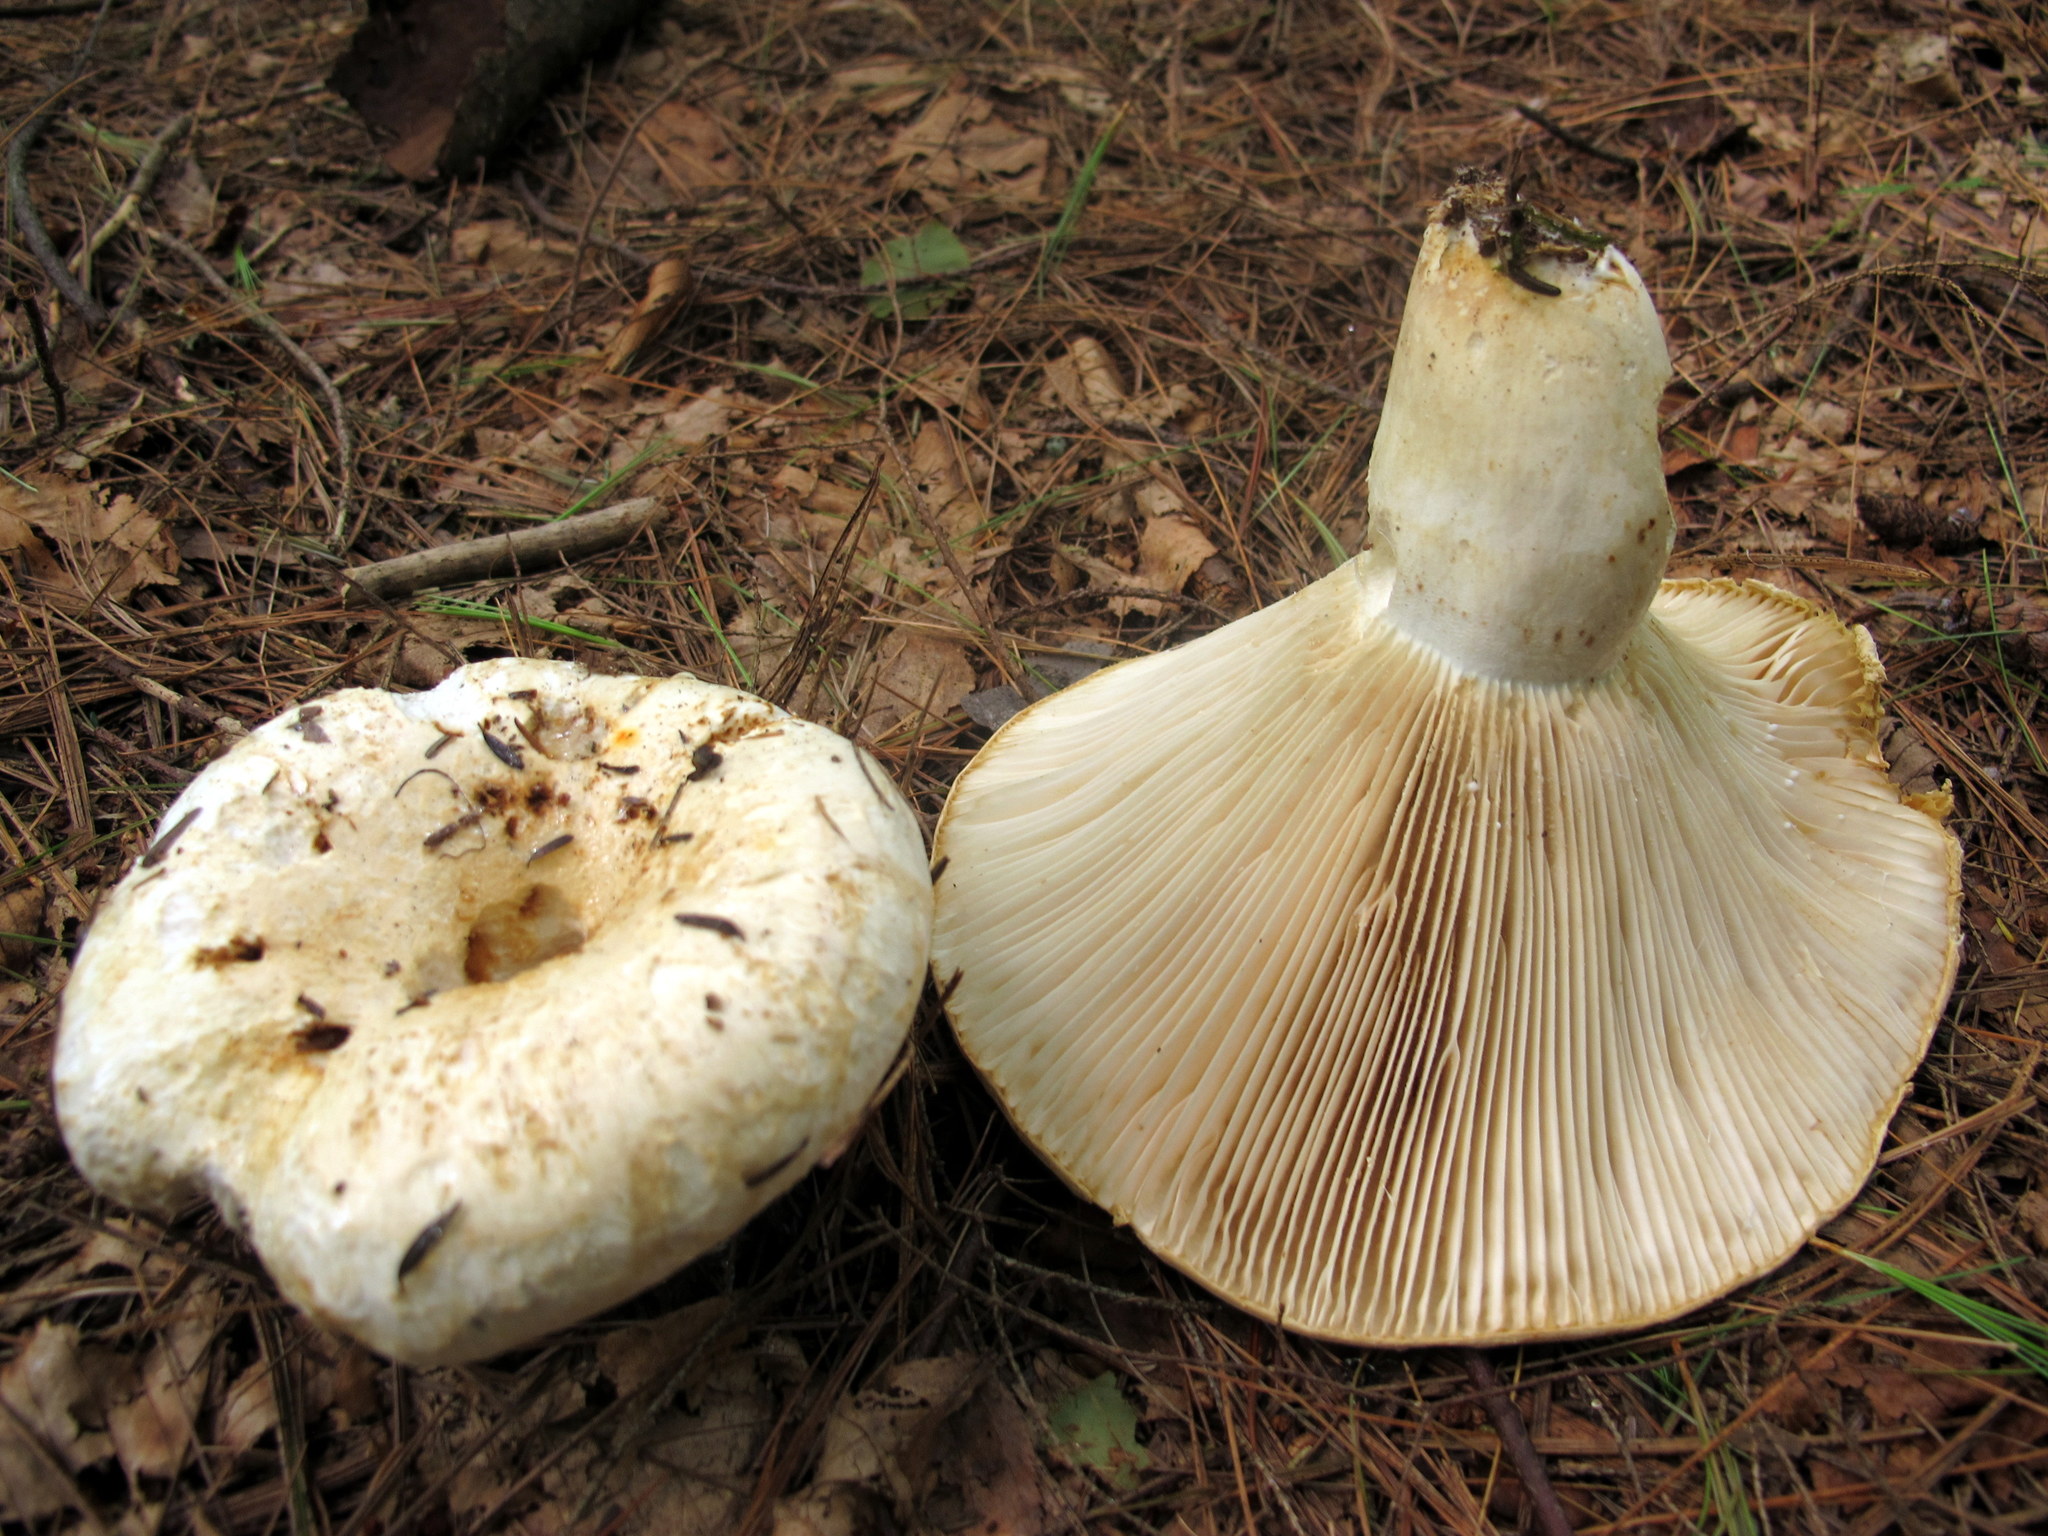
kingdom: Fungi
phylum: Basidiomycota
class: Agaricomycetes
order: Russulales
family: Russulaceae
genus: Lactifluus
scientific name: Lactifluus
